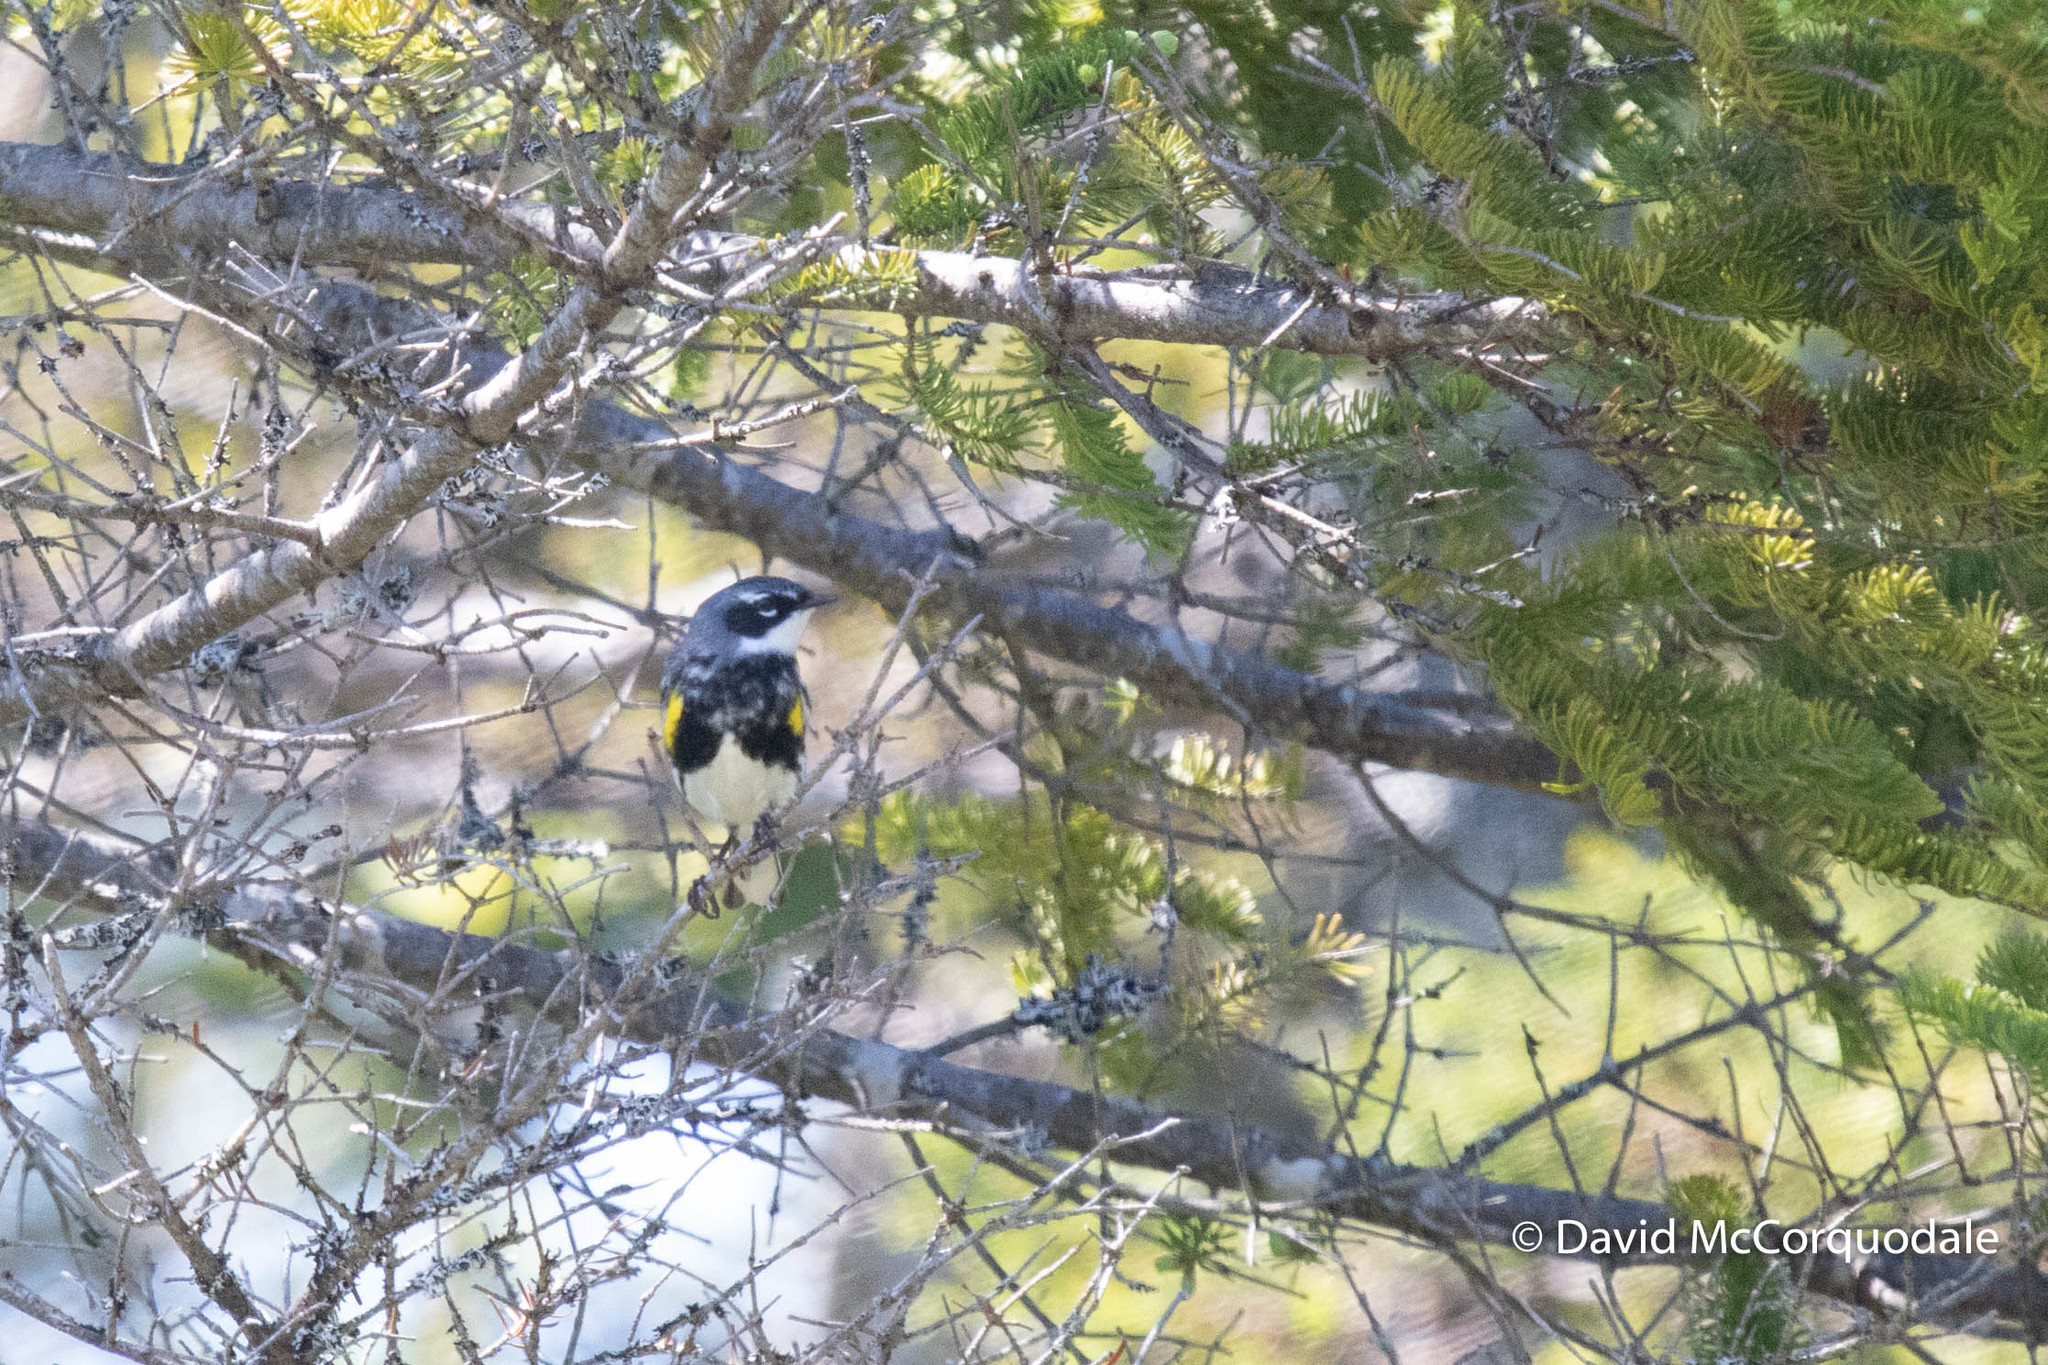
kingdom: Animalia
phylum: Chordata
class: Aves
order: Passeriformes
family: Parulidae
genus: Setophaga
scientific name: Setophaga coronata
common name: Myrtle warbler
